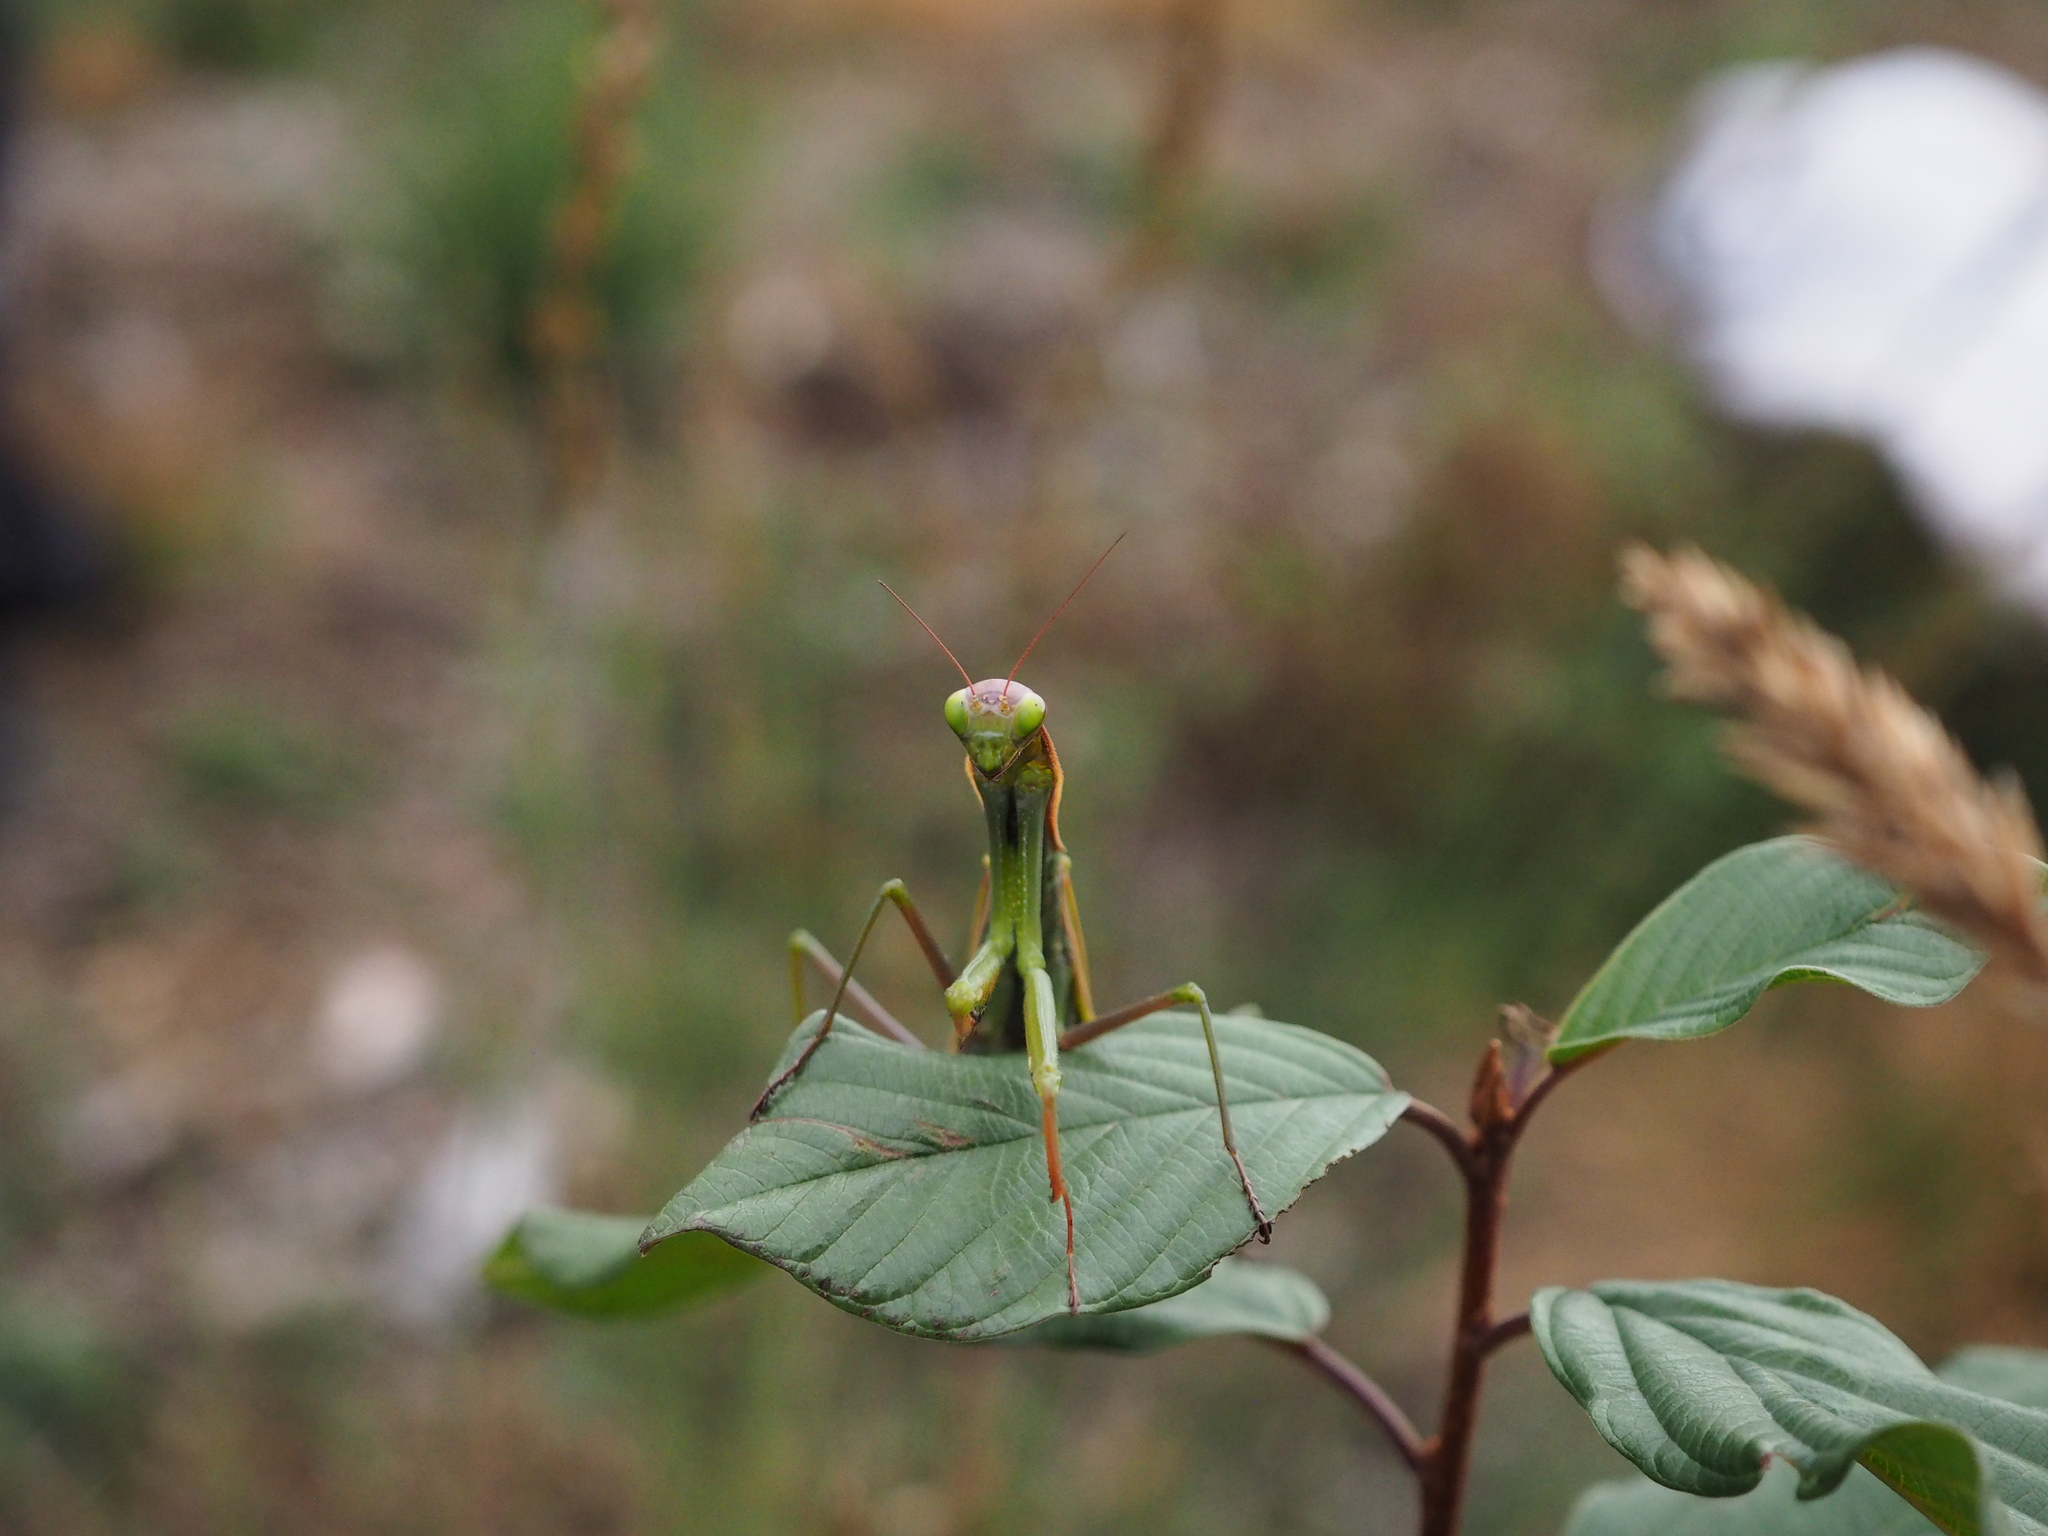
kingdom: Animalia
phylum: Arthropoda
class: Insecta
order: Mantodea
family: Mantidae
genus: Mantis
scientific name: Mantis religiosa
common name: Praying mantis
